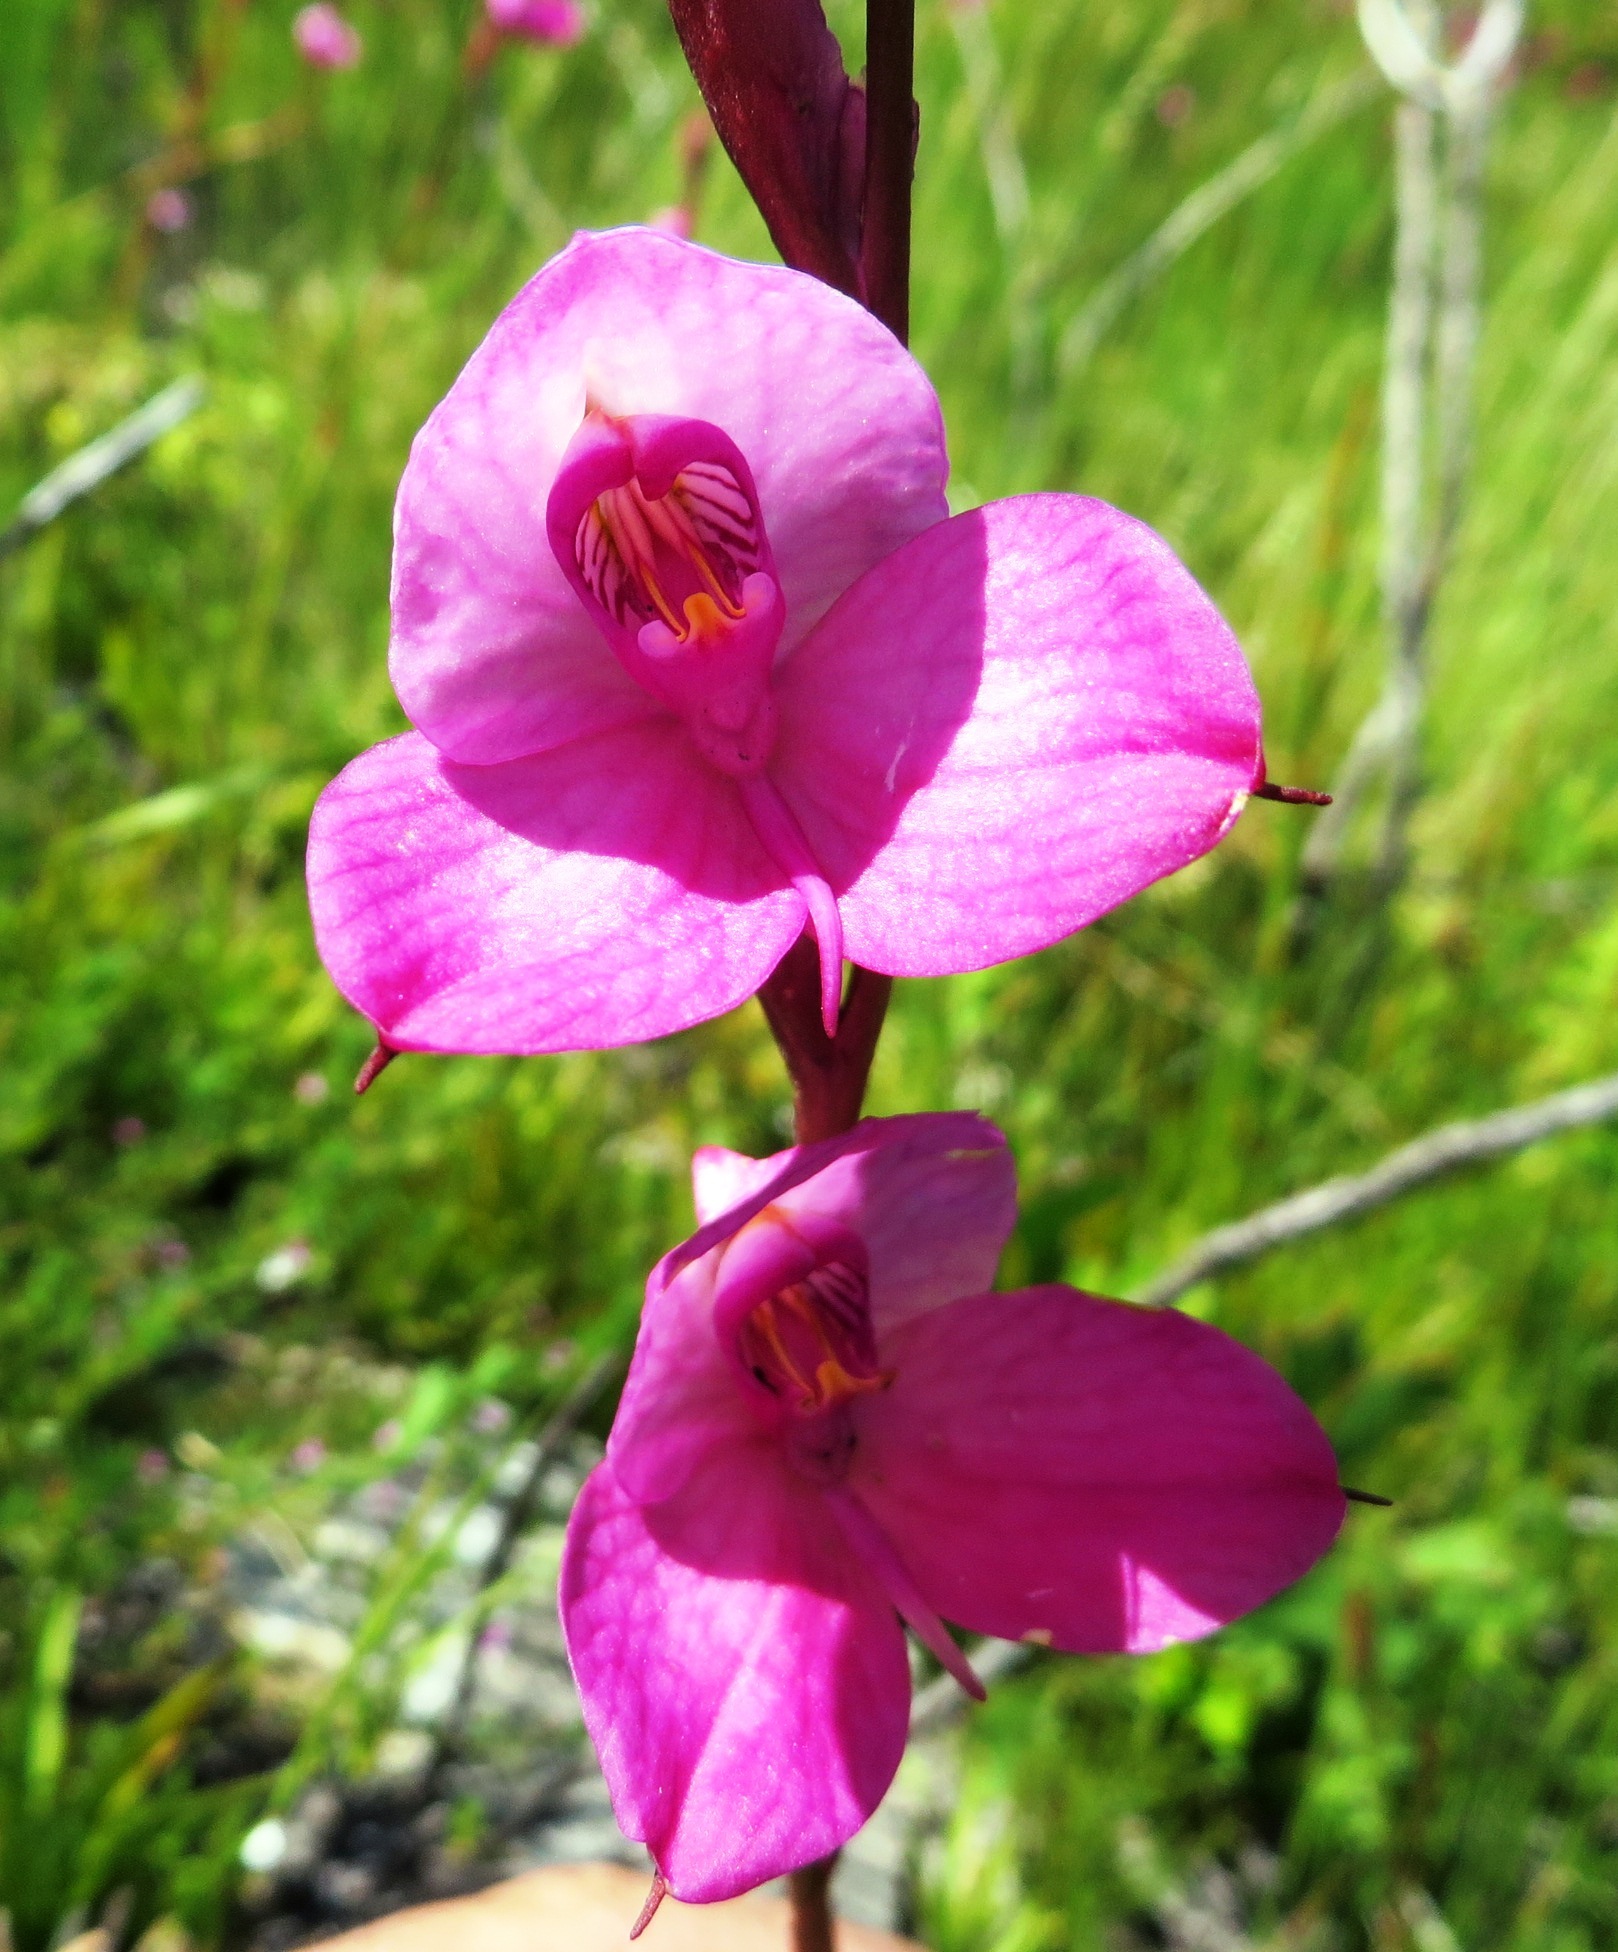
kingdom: Plantae
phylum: Tracheophyta
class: Liliopsida
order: Asparagales
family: Orchidaceae
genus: Disa
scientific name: Disa racemosa
